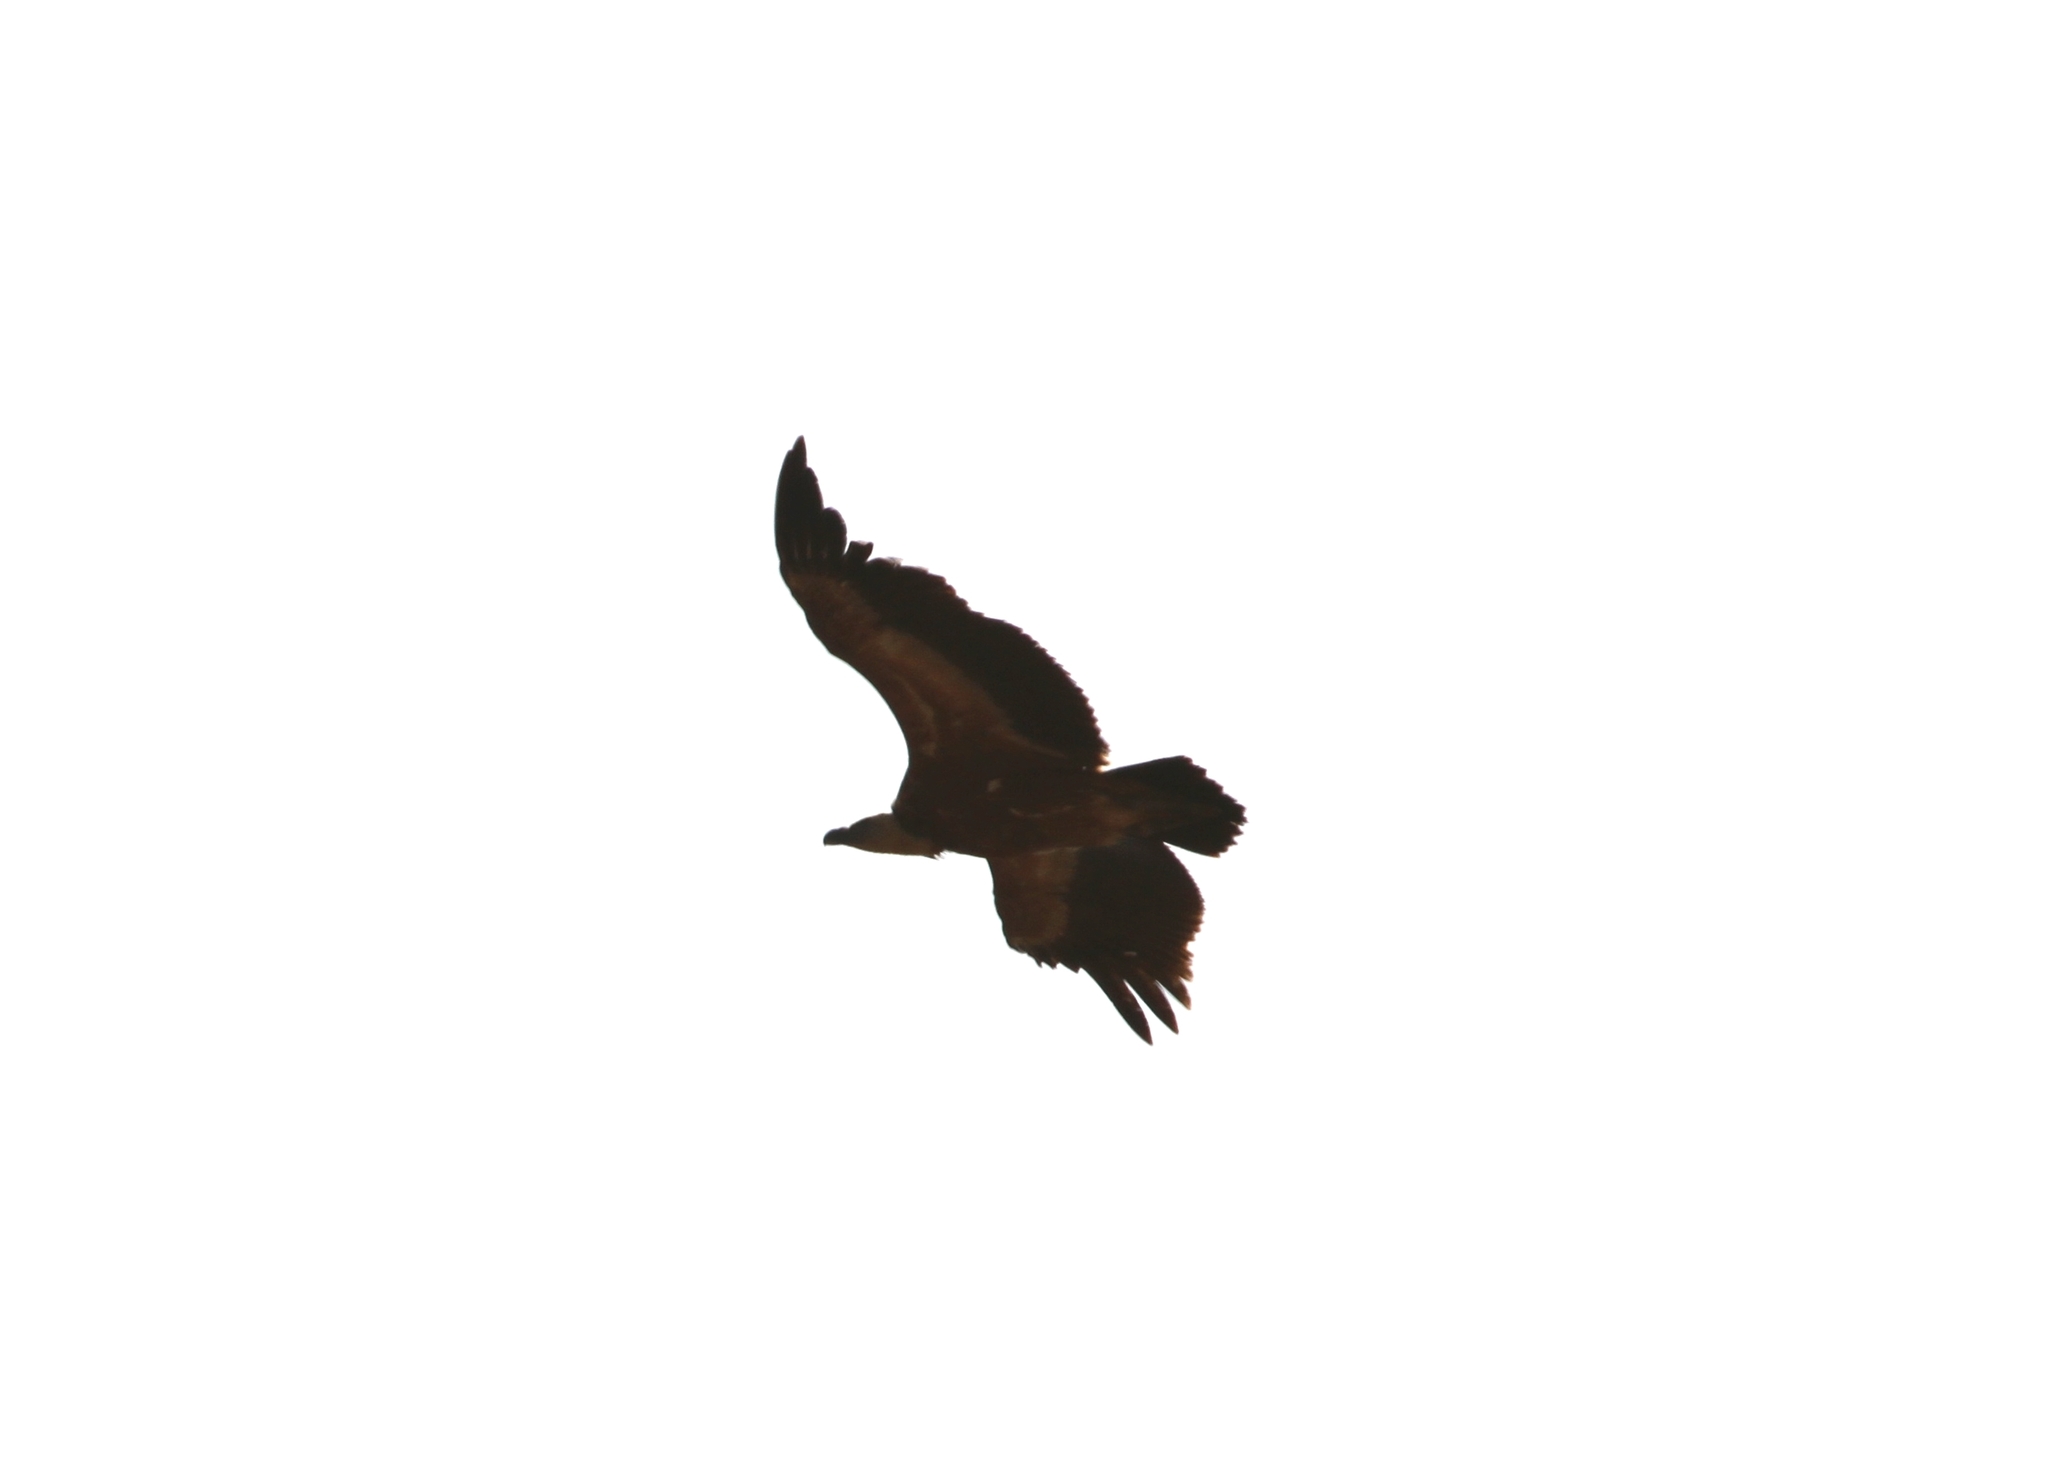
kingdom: Animalia
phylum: Chordata
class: Aves
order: Accipitriformes
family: Accipitridae
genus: Gyps
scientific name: Gyps rueppellii
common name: Rüppell's vulture
